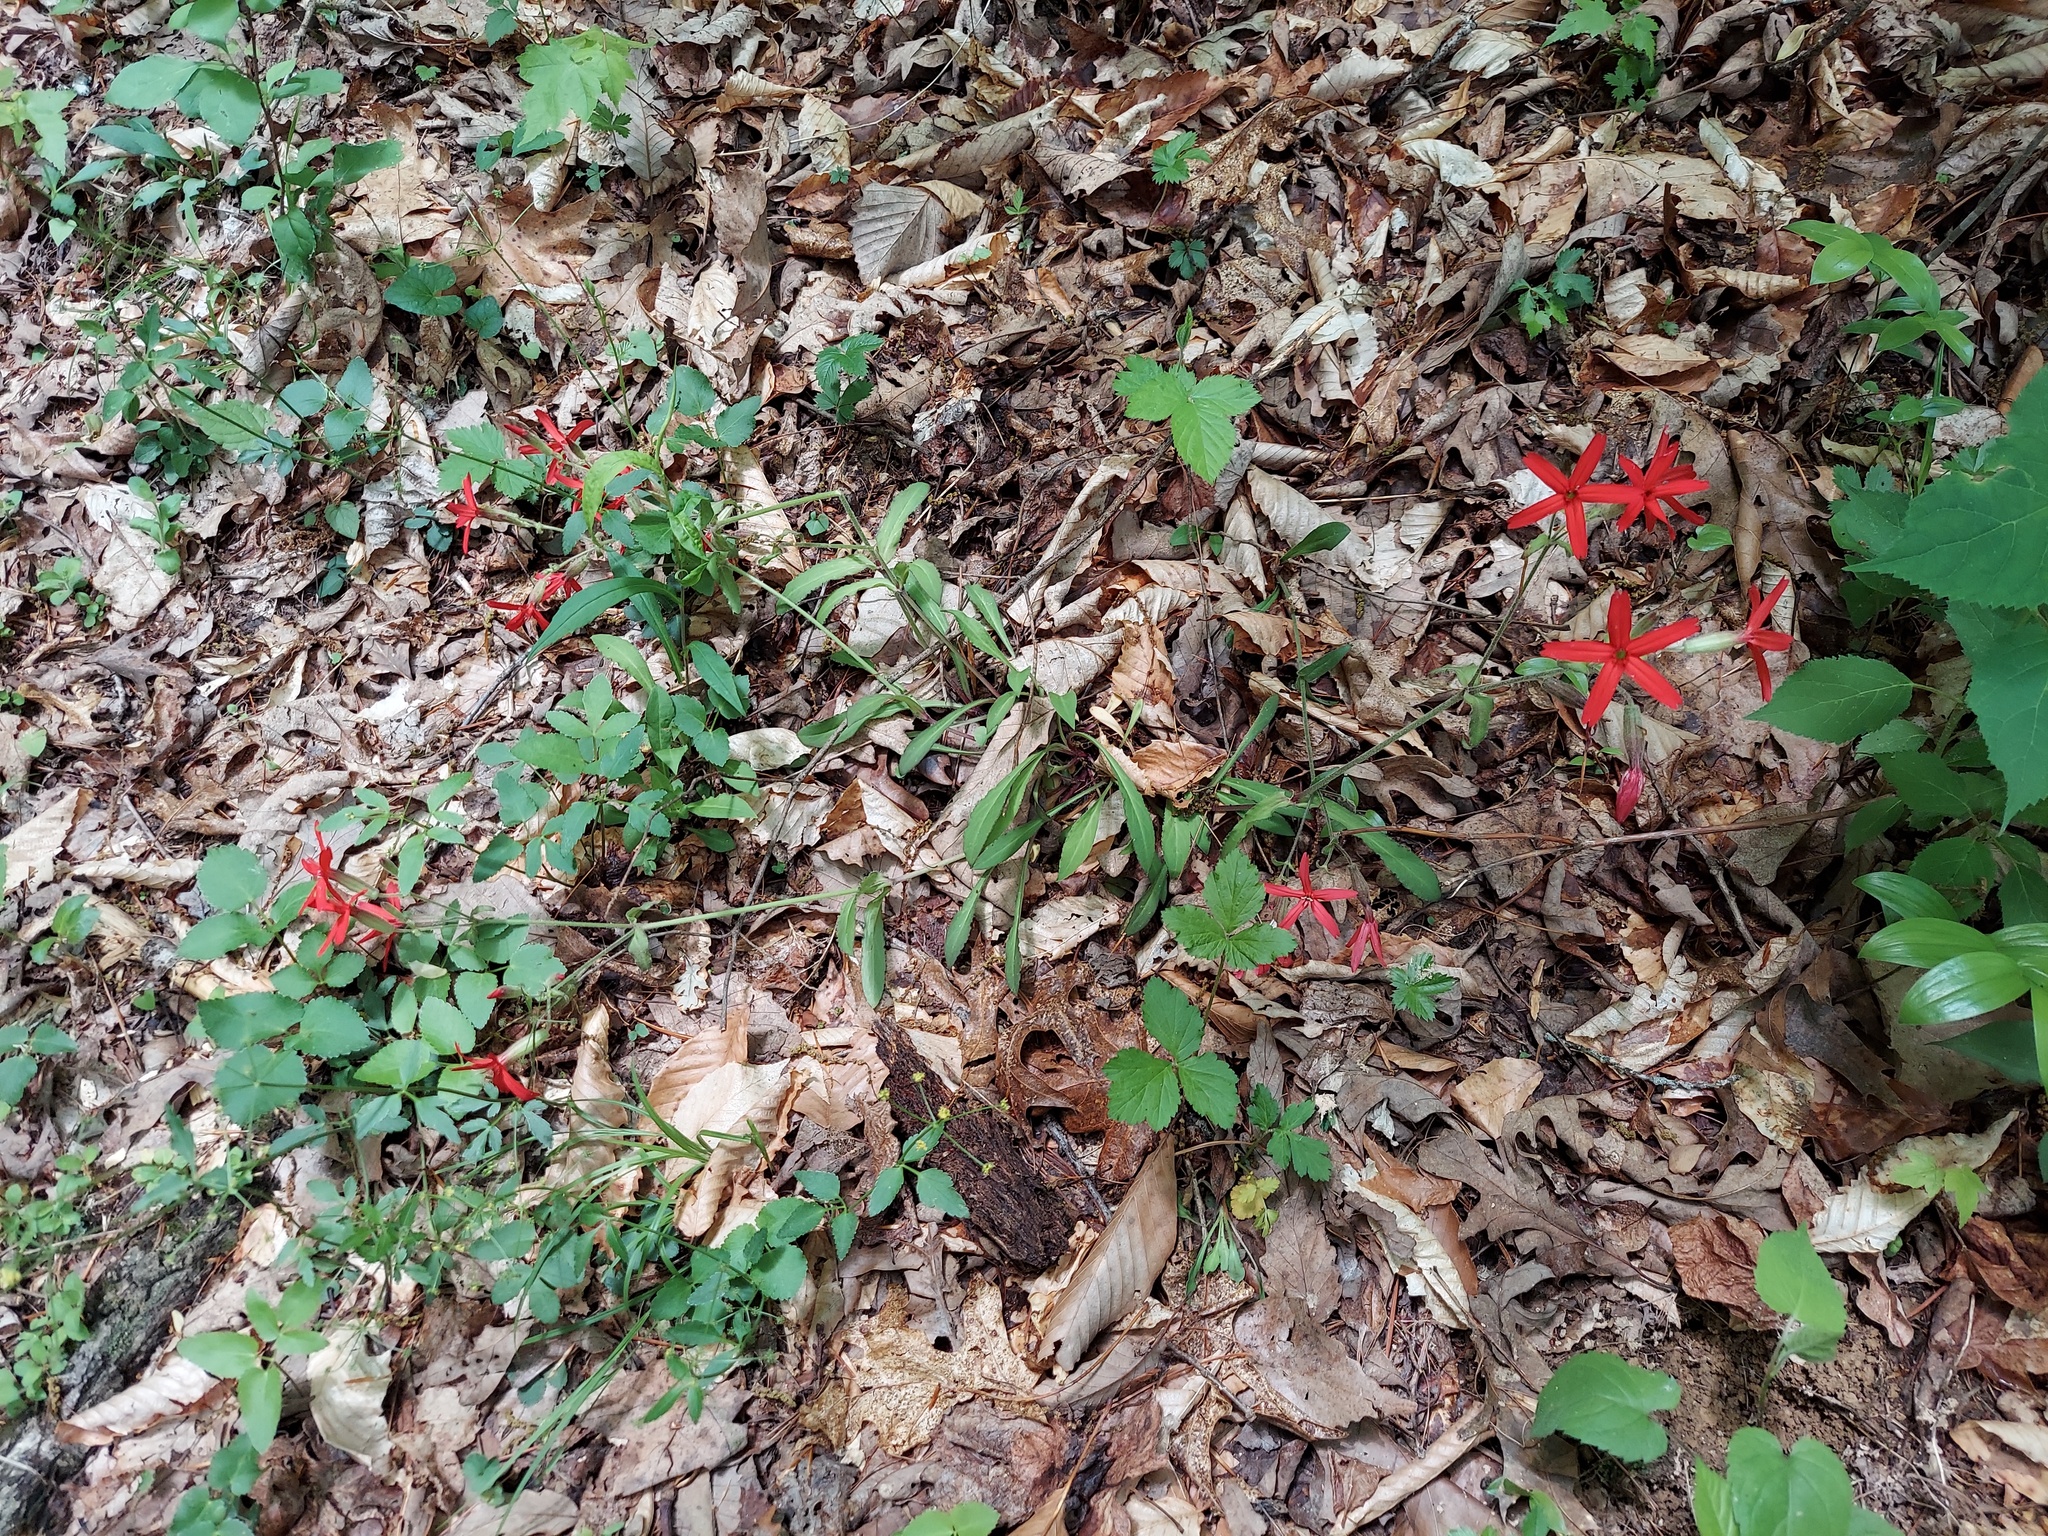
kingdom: Plantae
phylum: Tracheophyta
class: Magnoliopsida
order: Caryophyllales
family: Caryophyllaceae
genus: Silene
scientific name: Silene virginica
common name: Fire-pink
